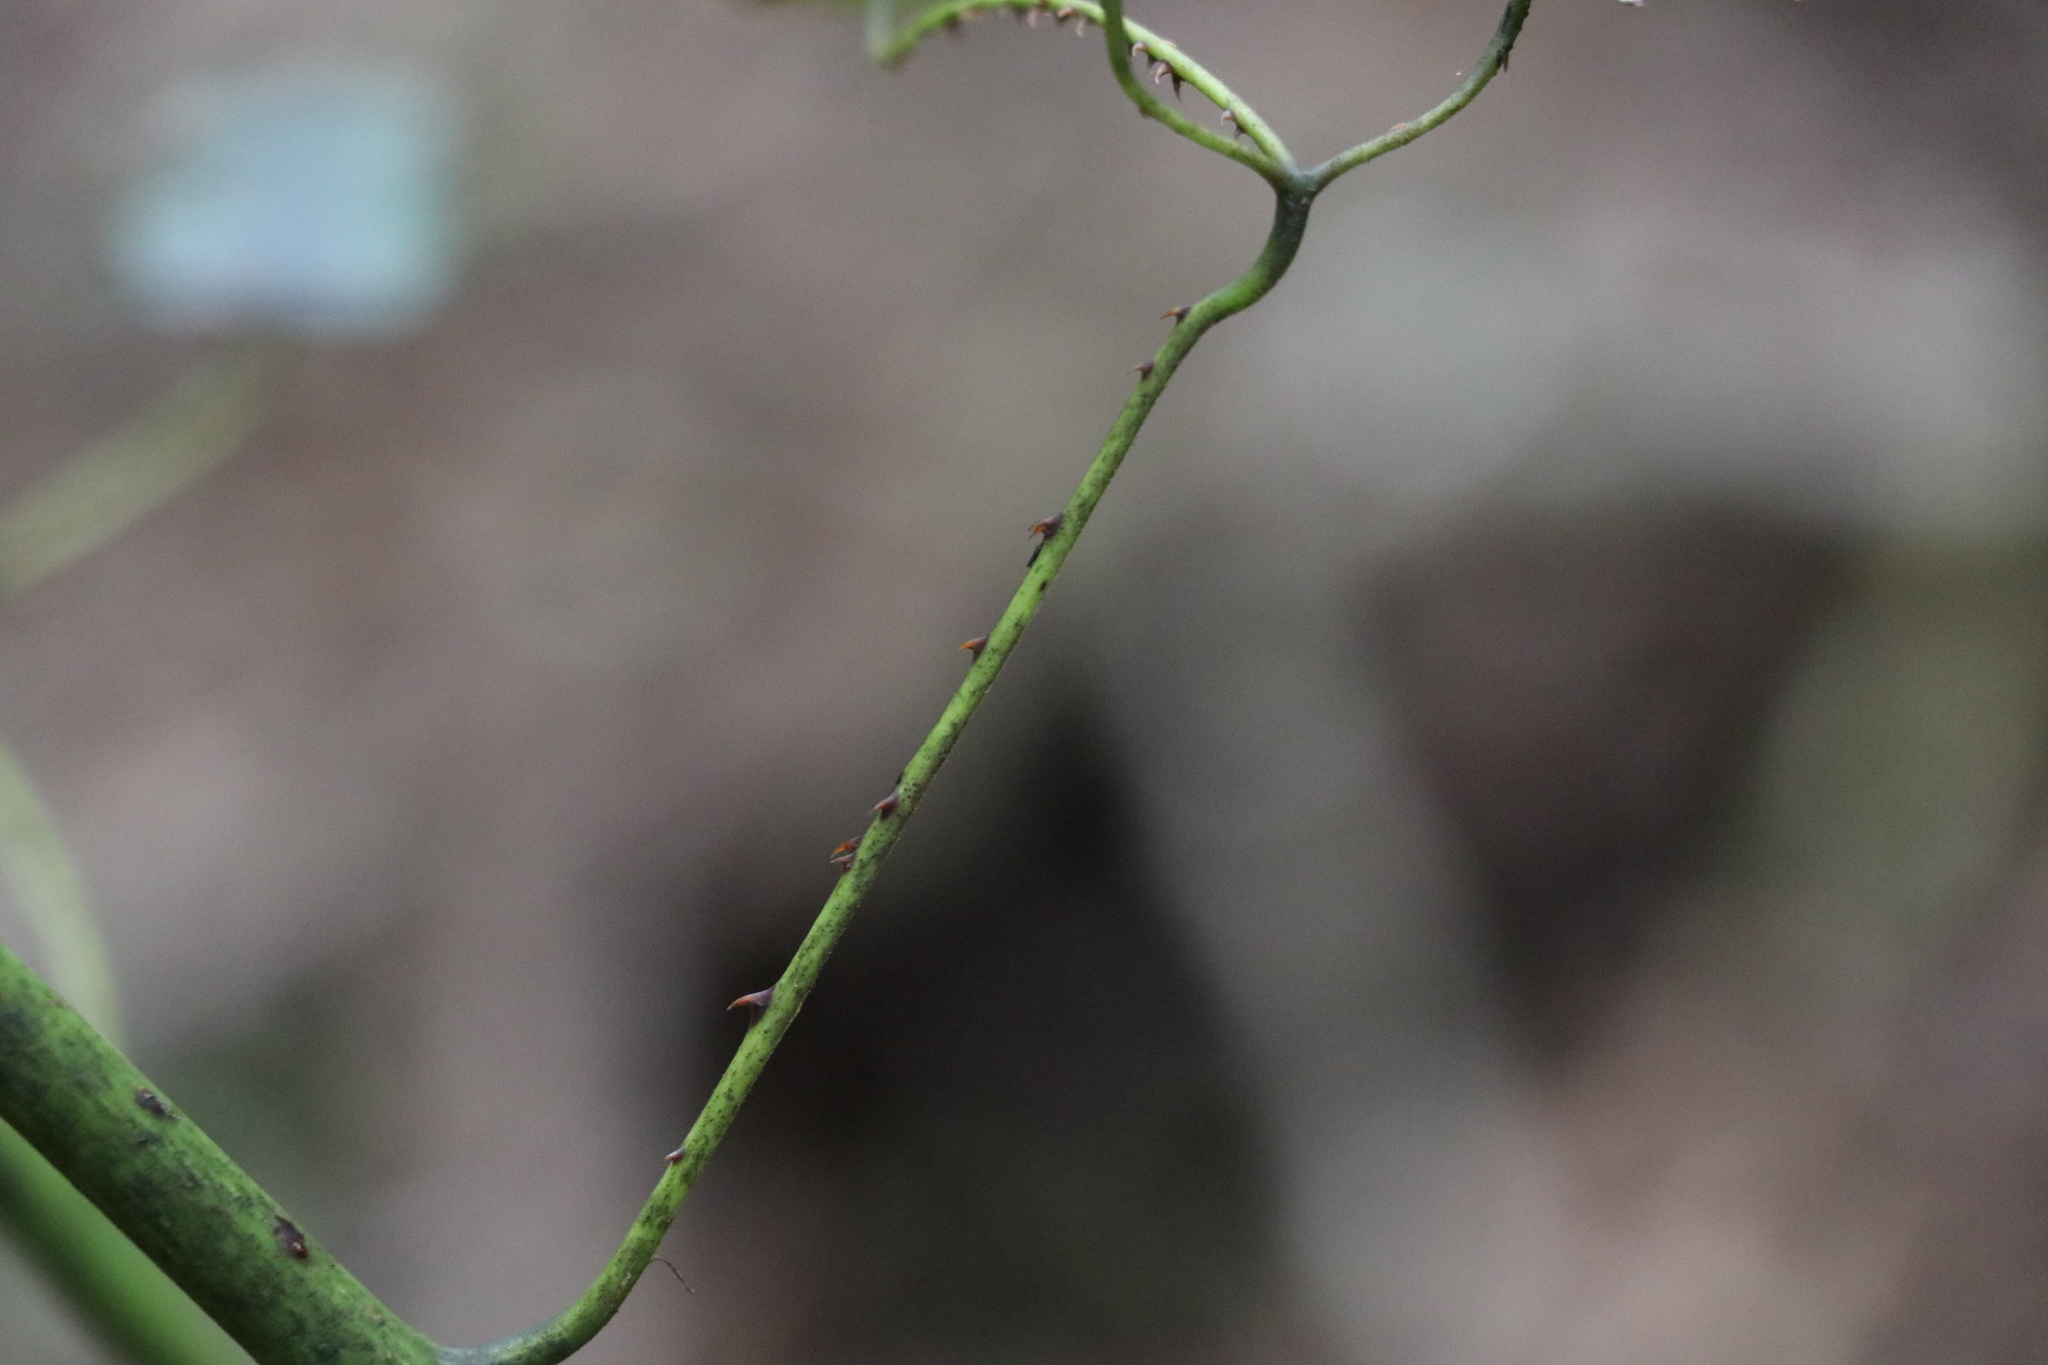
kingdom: Plantae
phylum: Tracheophyta
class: Magnoliopsida
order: Rosales
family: Rosaceae
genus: Rubus
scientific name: Rubus cissoides
